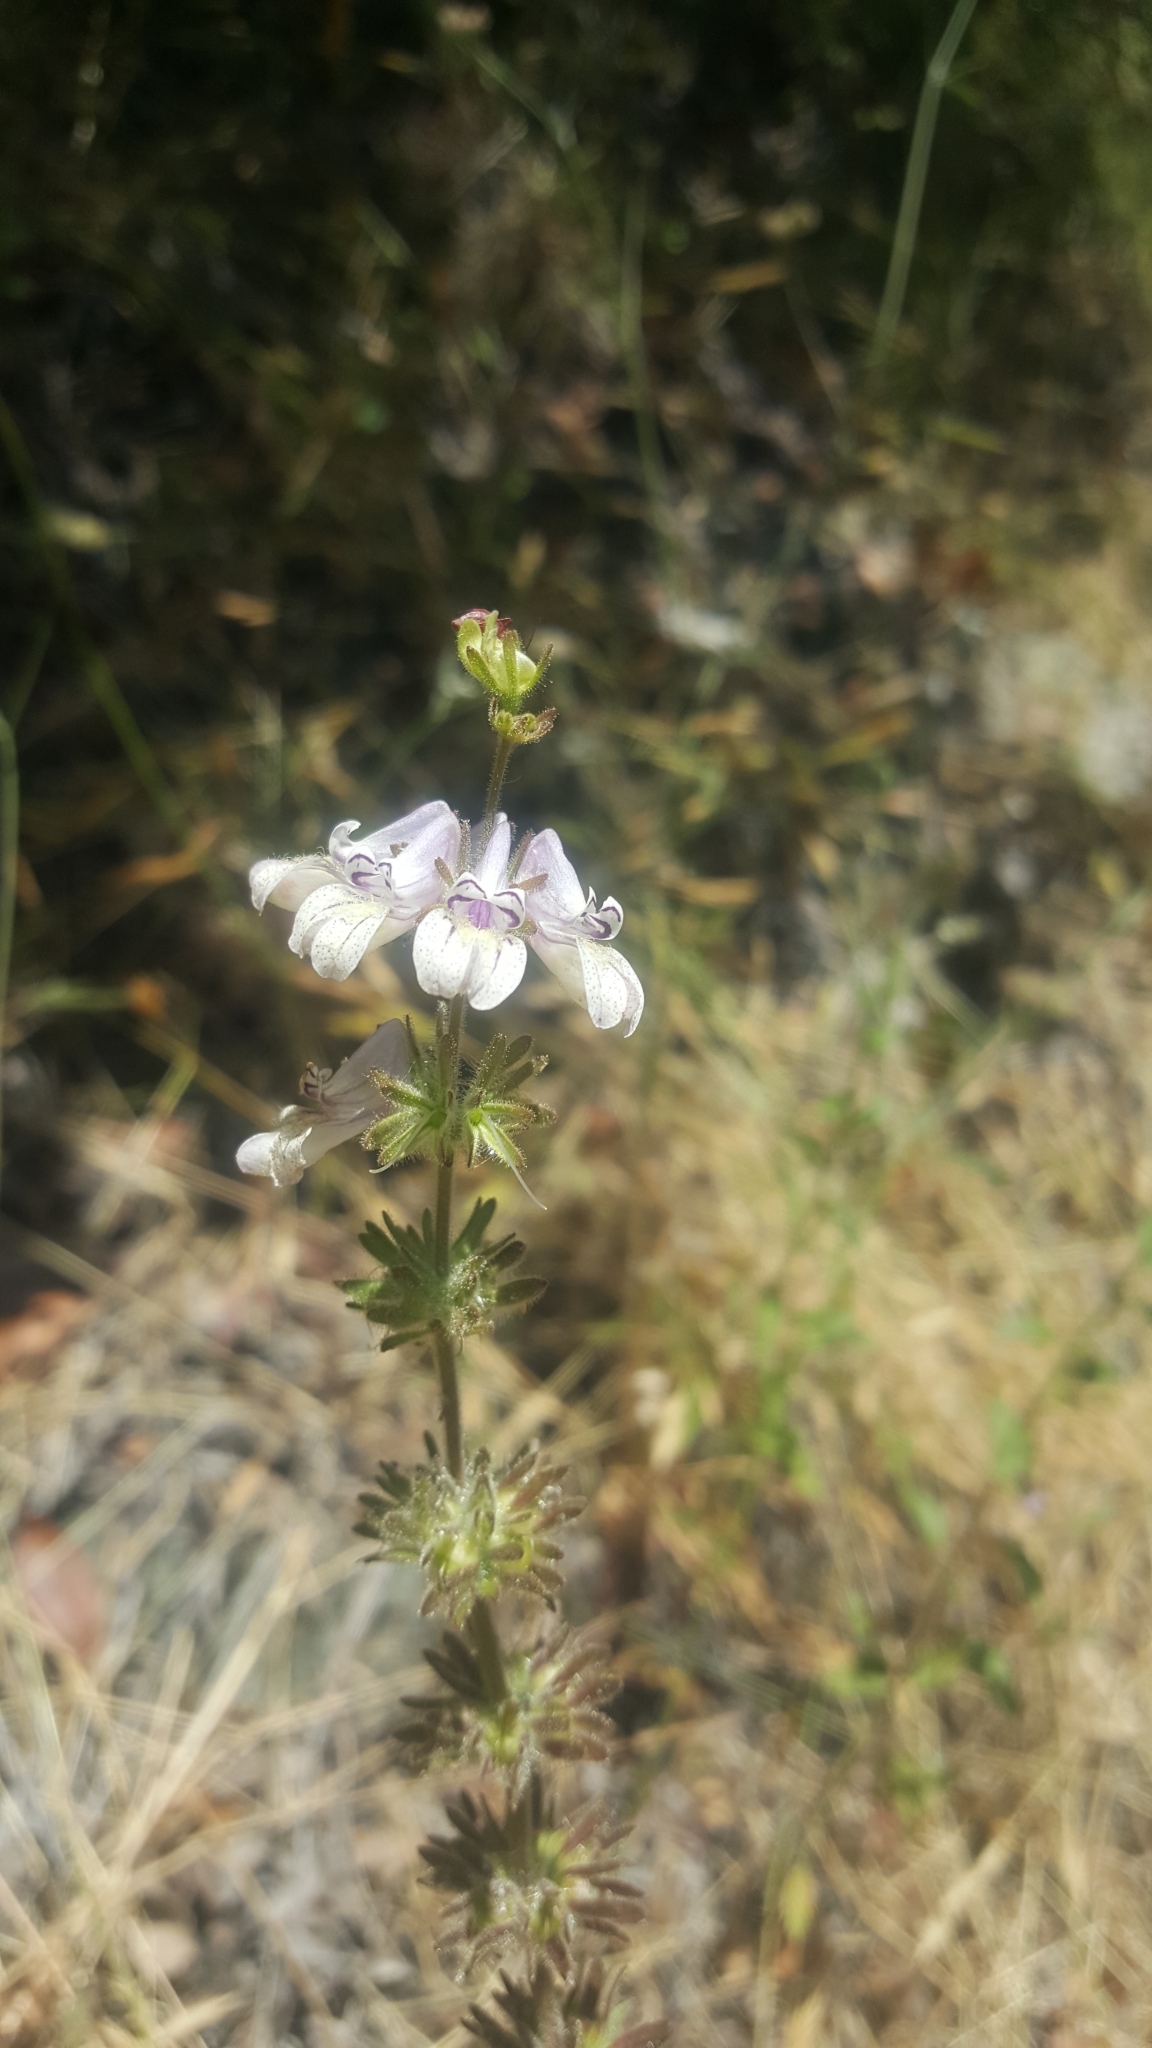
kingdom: Plantae
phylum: Tracheophyta
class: Magnoliopsida
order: Lamiales
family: Plantaginaceae
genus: Collinsia
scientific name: Collinsia tinctoria
